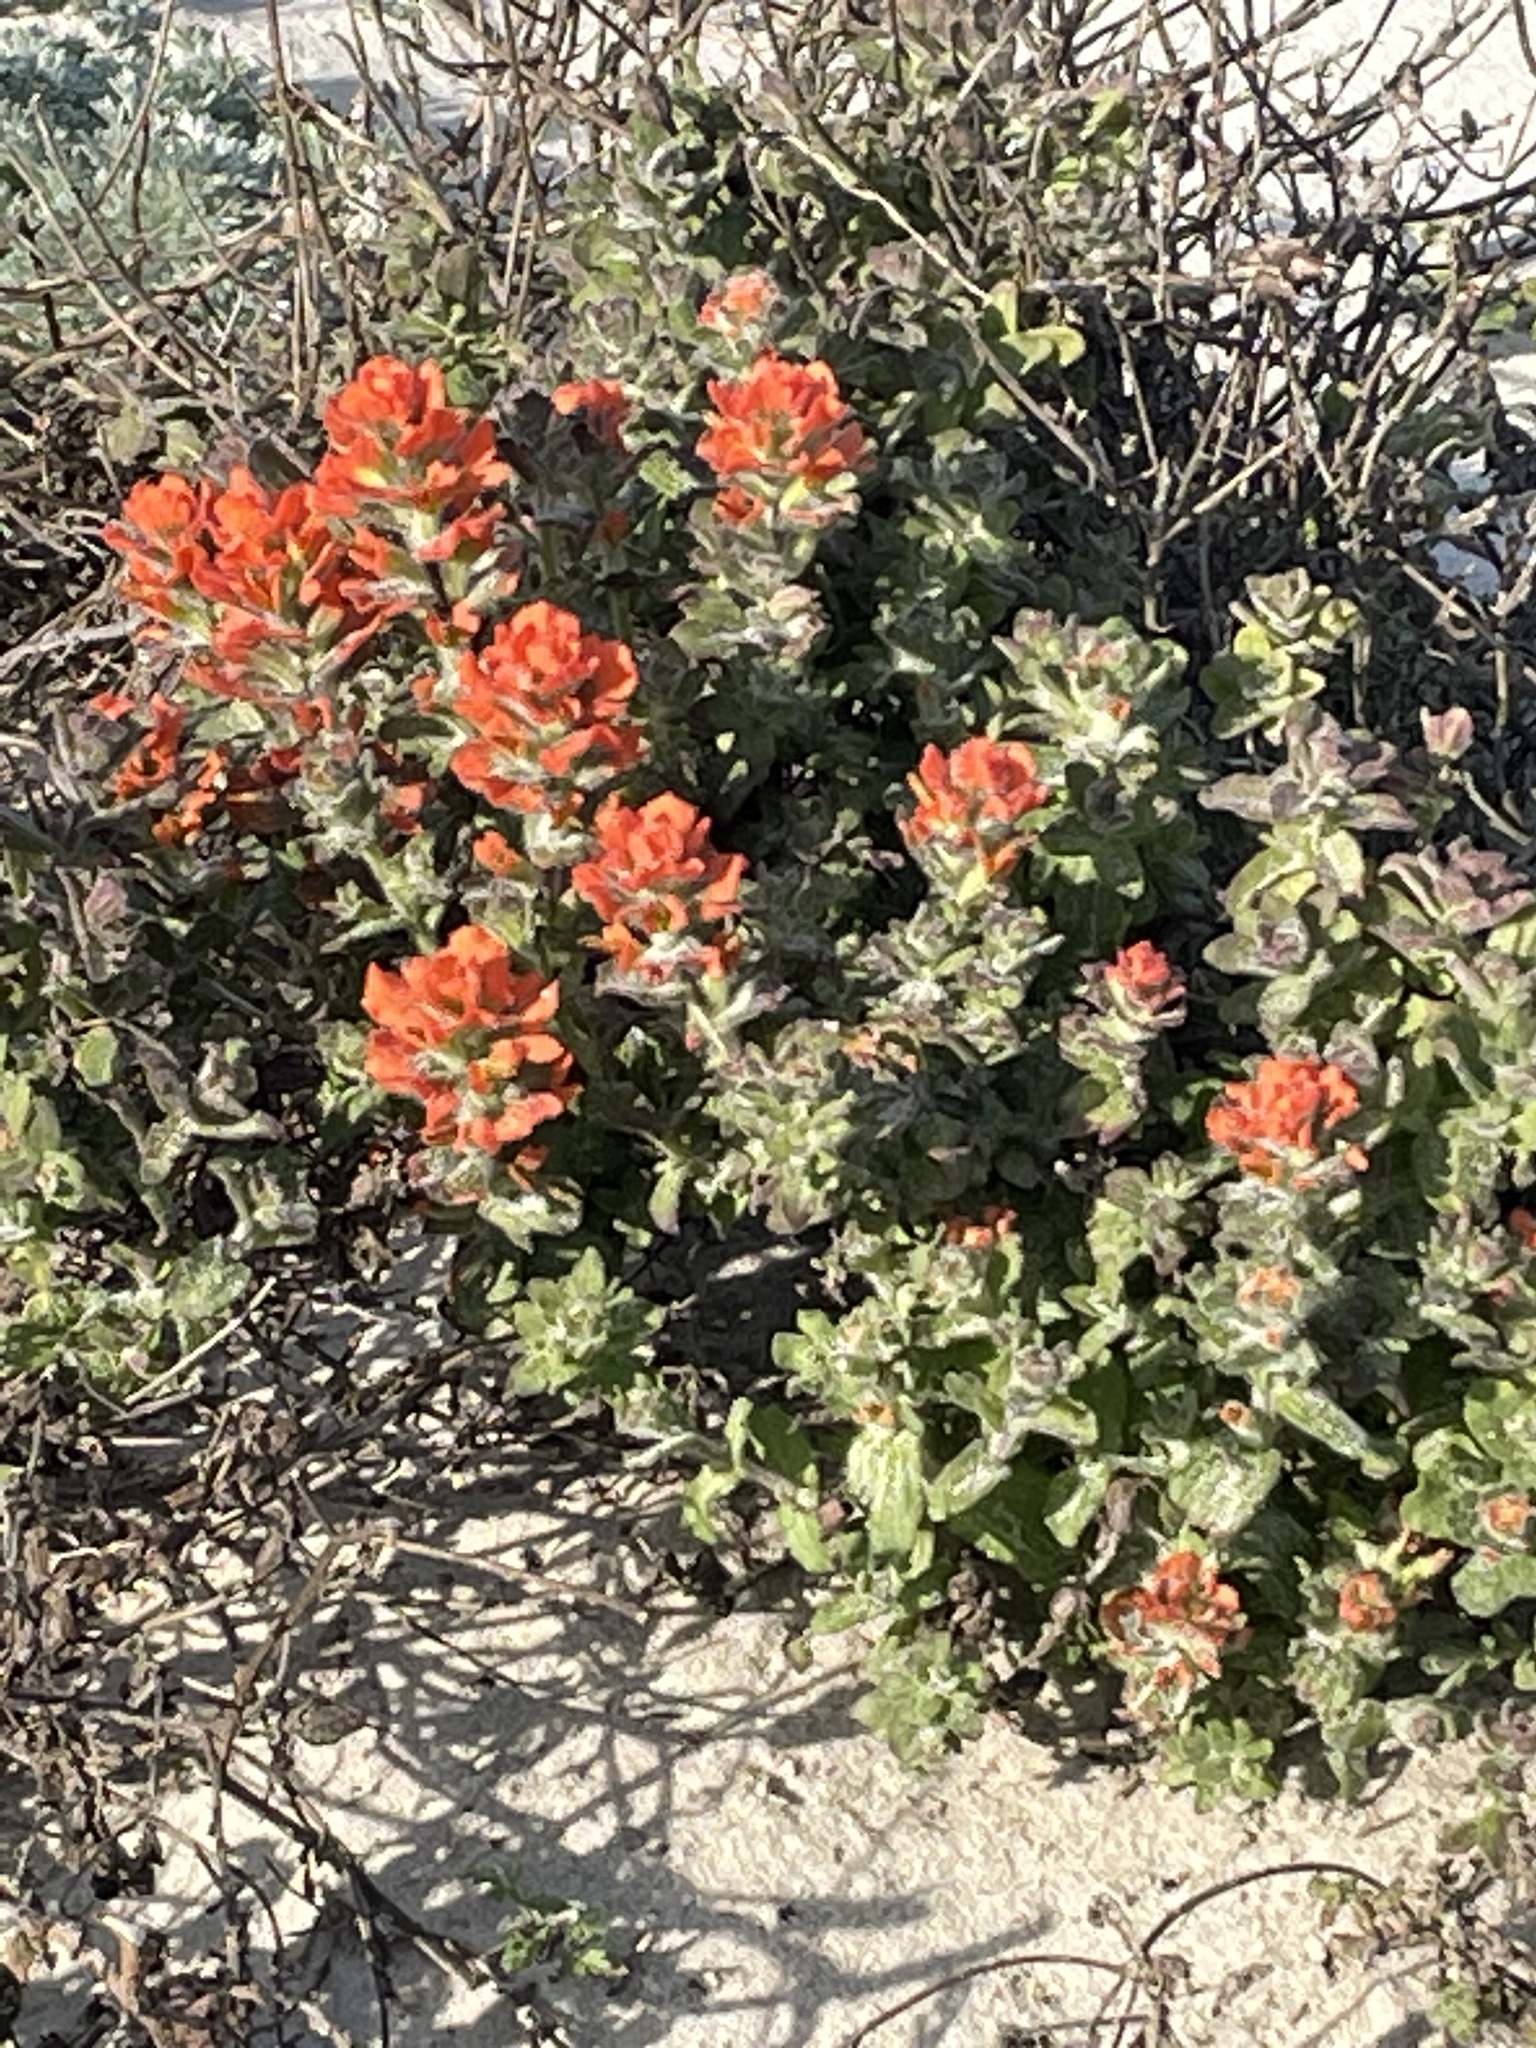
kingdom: Plantae
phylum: Tracheophyta
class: Magnoliopsida
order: Lamiales
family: Orobanchaceae
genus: Castilleja
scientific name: Castilleja latifolia
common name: Monterey indian paintbrush
